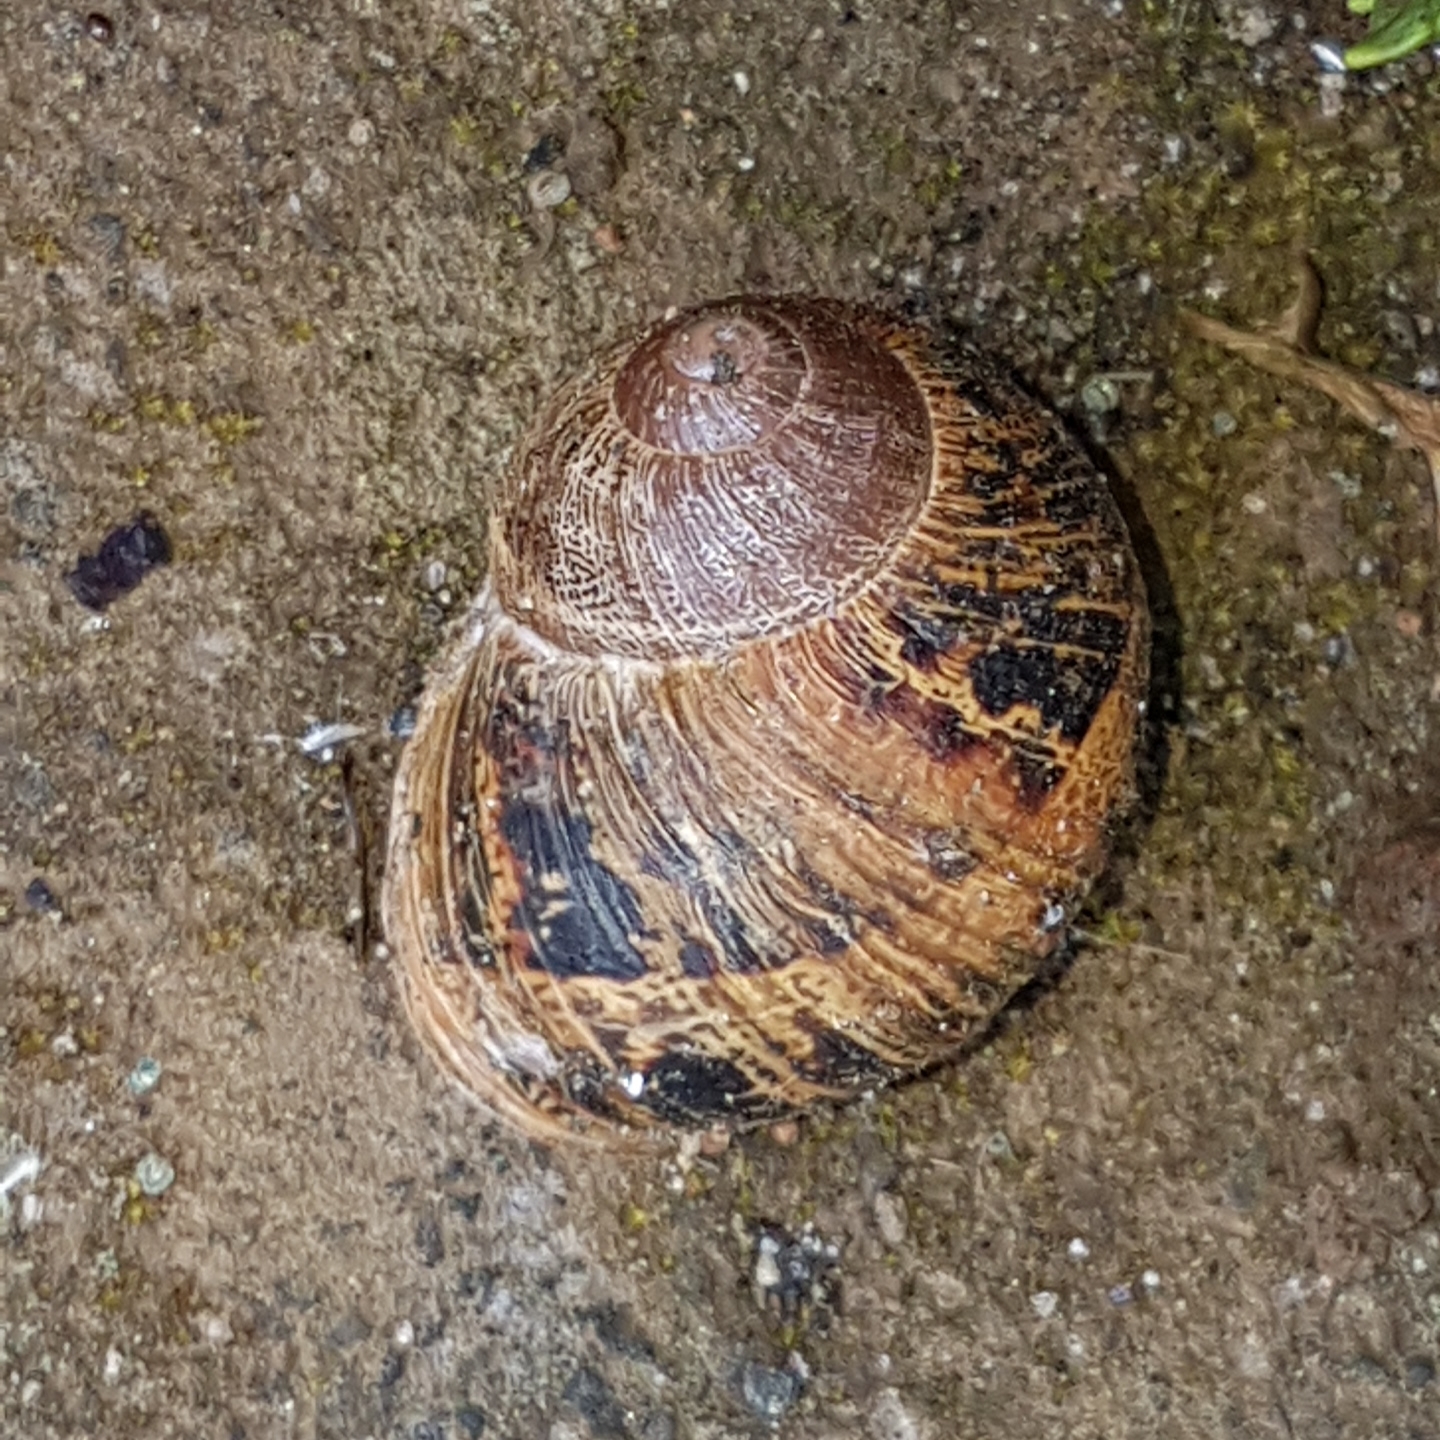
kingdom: Animalia
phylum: Mollusca
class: Gastropoda
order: Stylommatophora
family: Helicidae
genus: Cornu
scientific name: Cornu aspersum
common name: Brown garden snail
